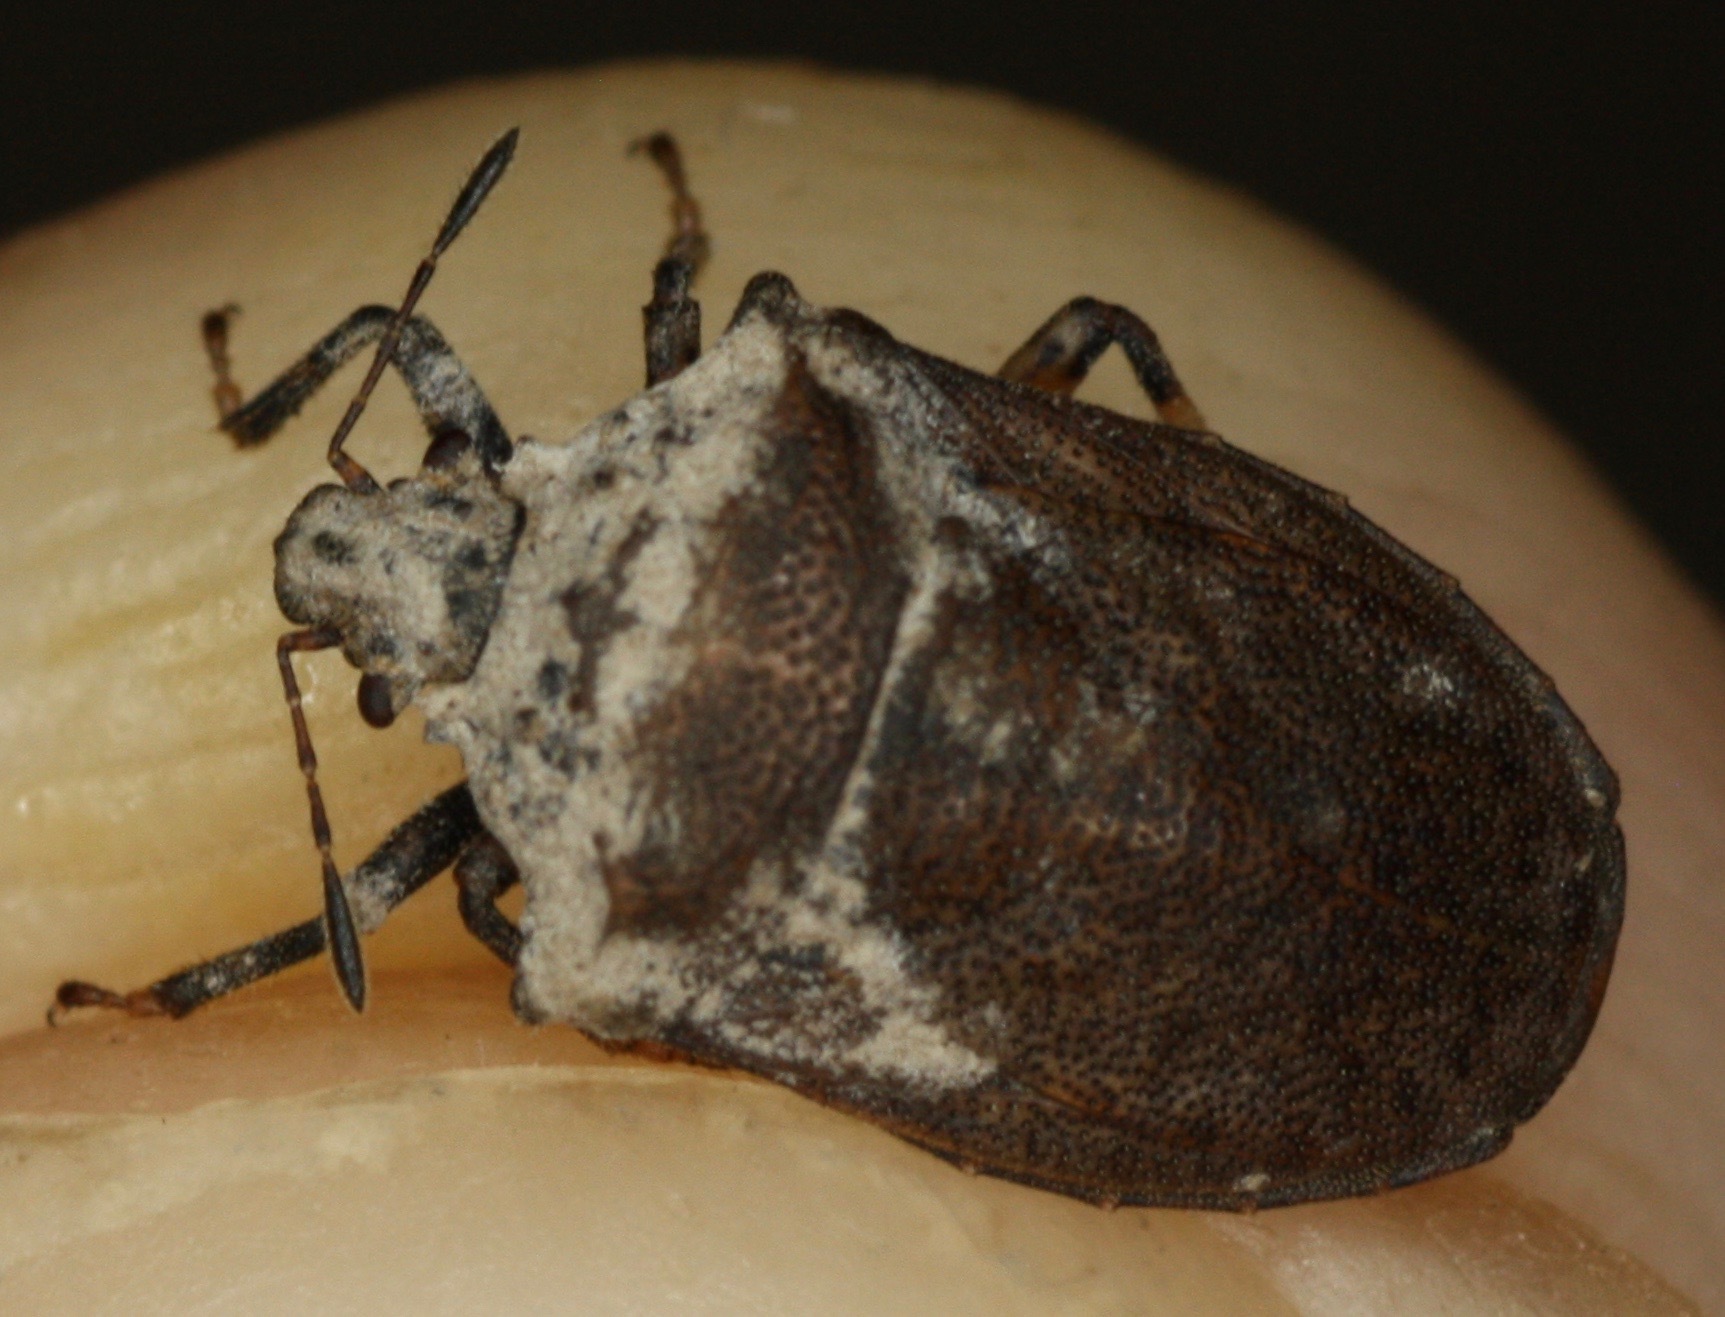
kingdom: Animalia
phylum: Arthropoda
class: Insecta
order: Hemiptera
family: Pentatomidae
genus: Amaurochrous
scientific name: Amaurochrous cinctipes
